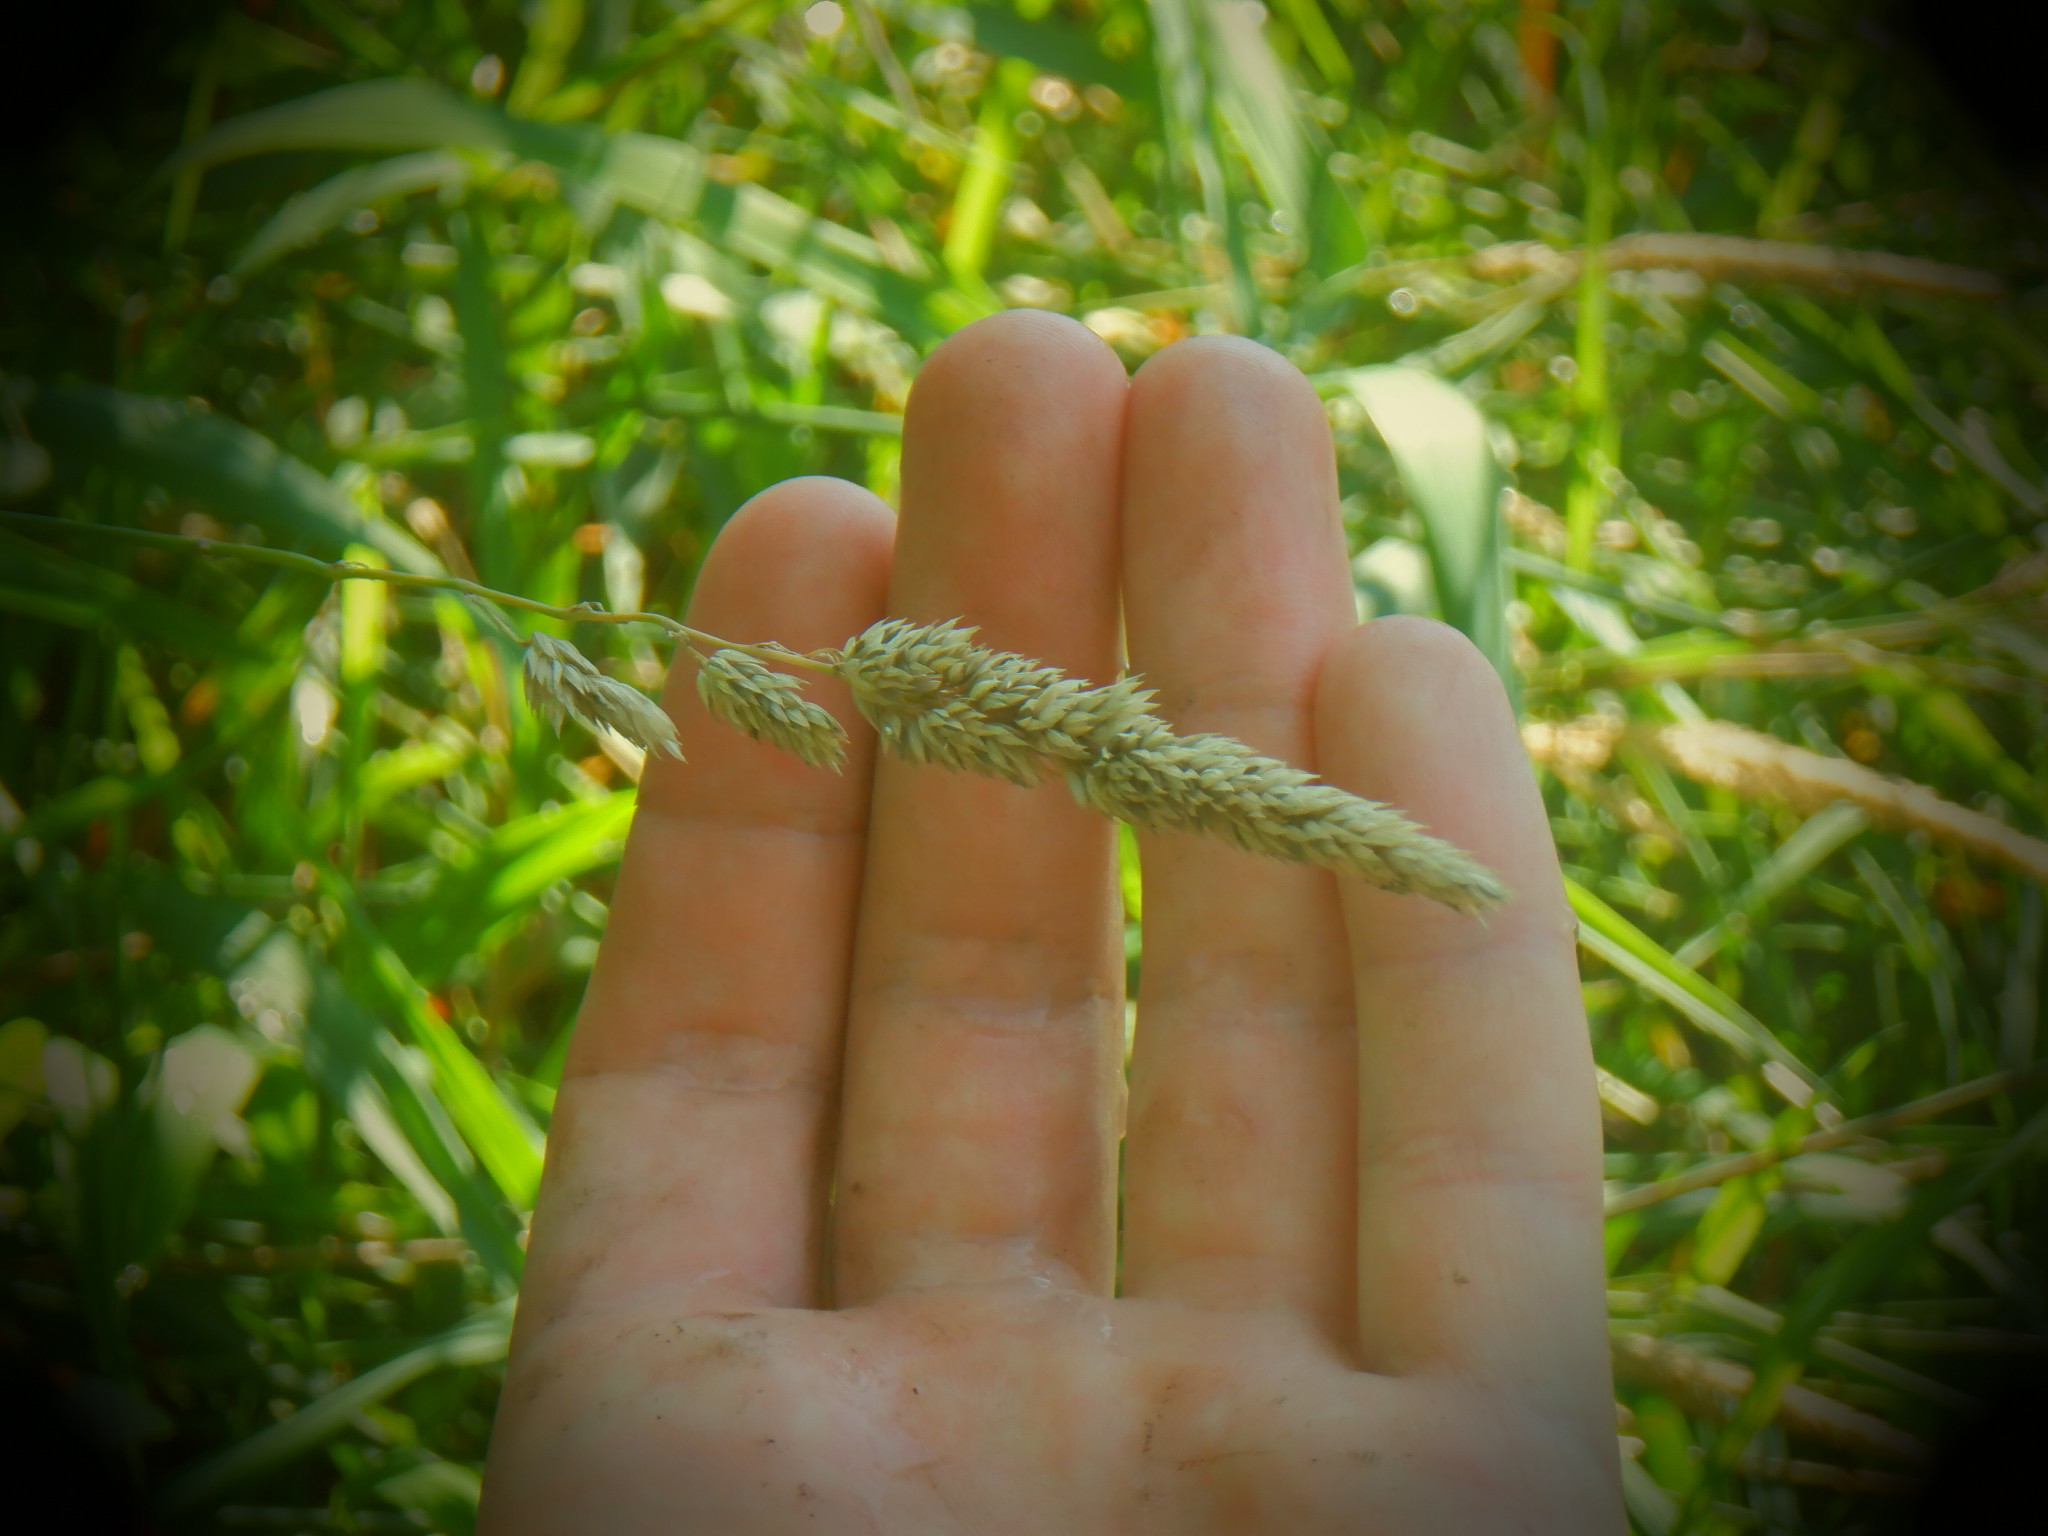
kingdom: Plantae
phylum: Tracheophyta
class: Liliopsida
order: Poales
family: Poaceae
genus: Dactylis
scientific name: Dactylis glomerata
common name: Orchardgrass
